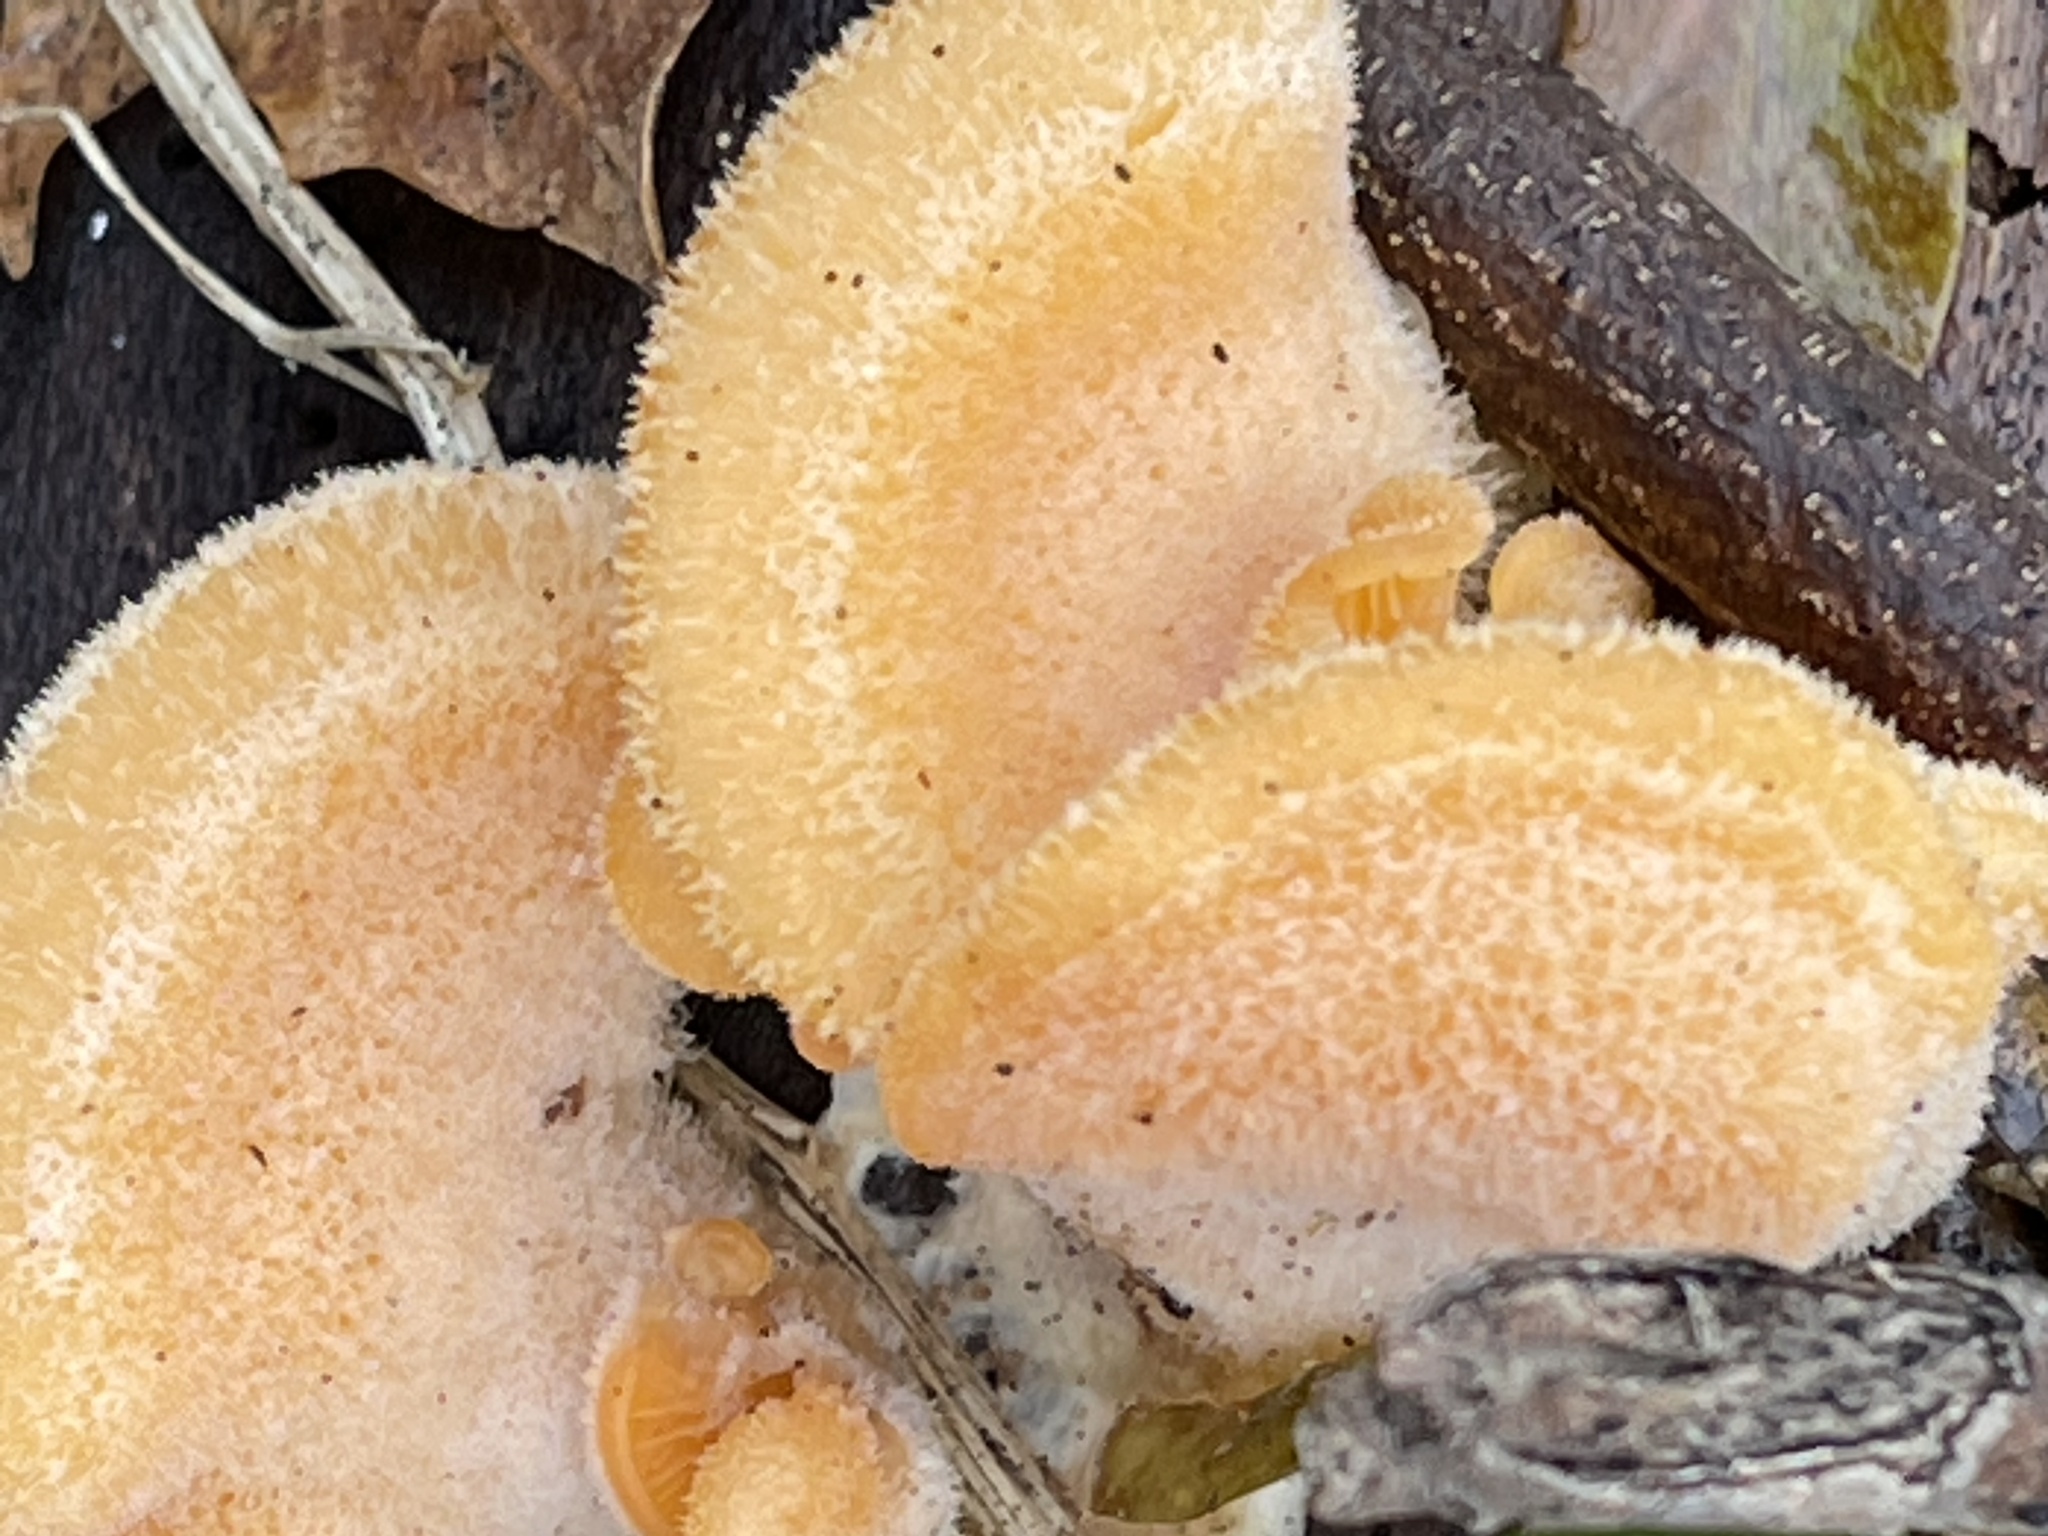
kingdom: Fungi
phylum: Basidiomycota
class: Agaricomycetes
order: Agaricales
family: Phyllotopsidaceae
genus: Phyllotopsis
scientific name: Phyllotopsis nidulans
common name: Orange mock oyster
